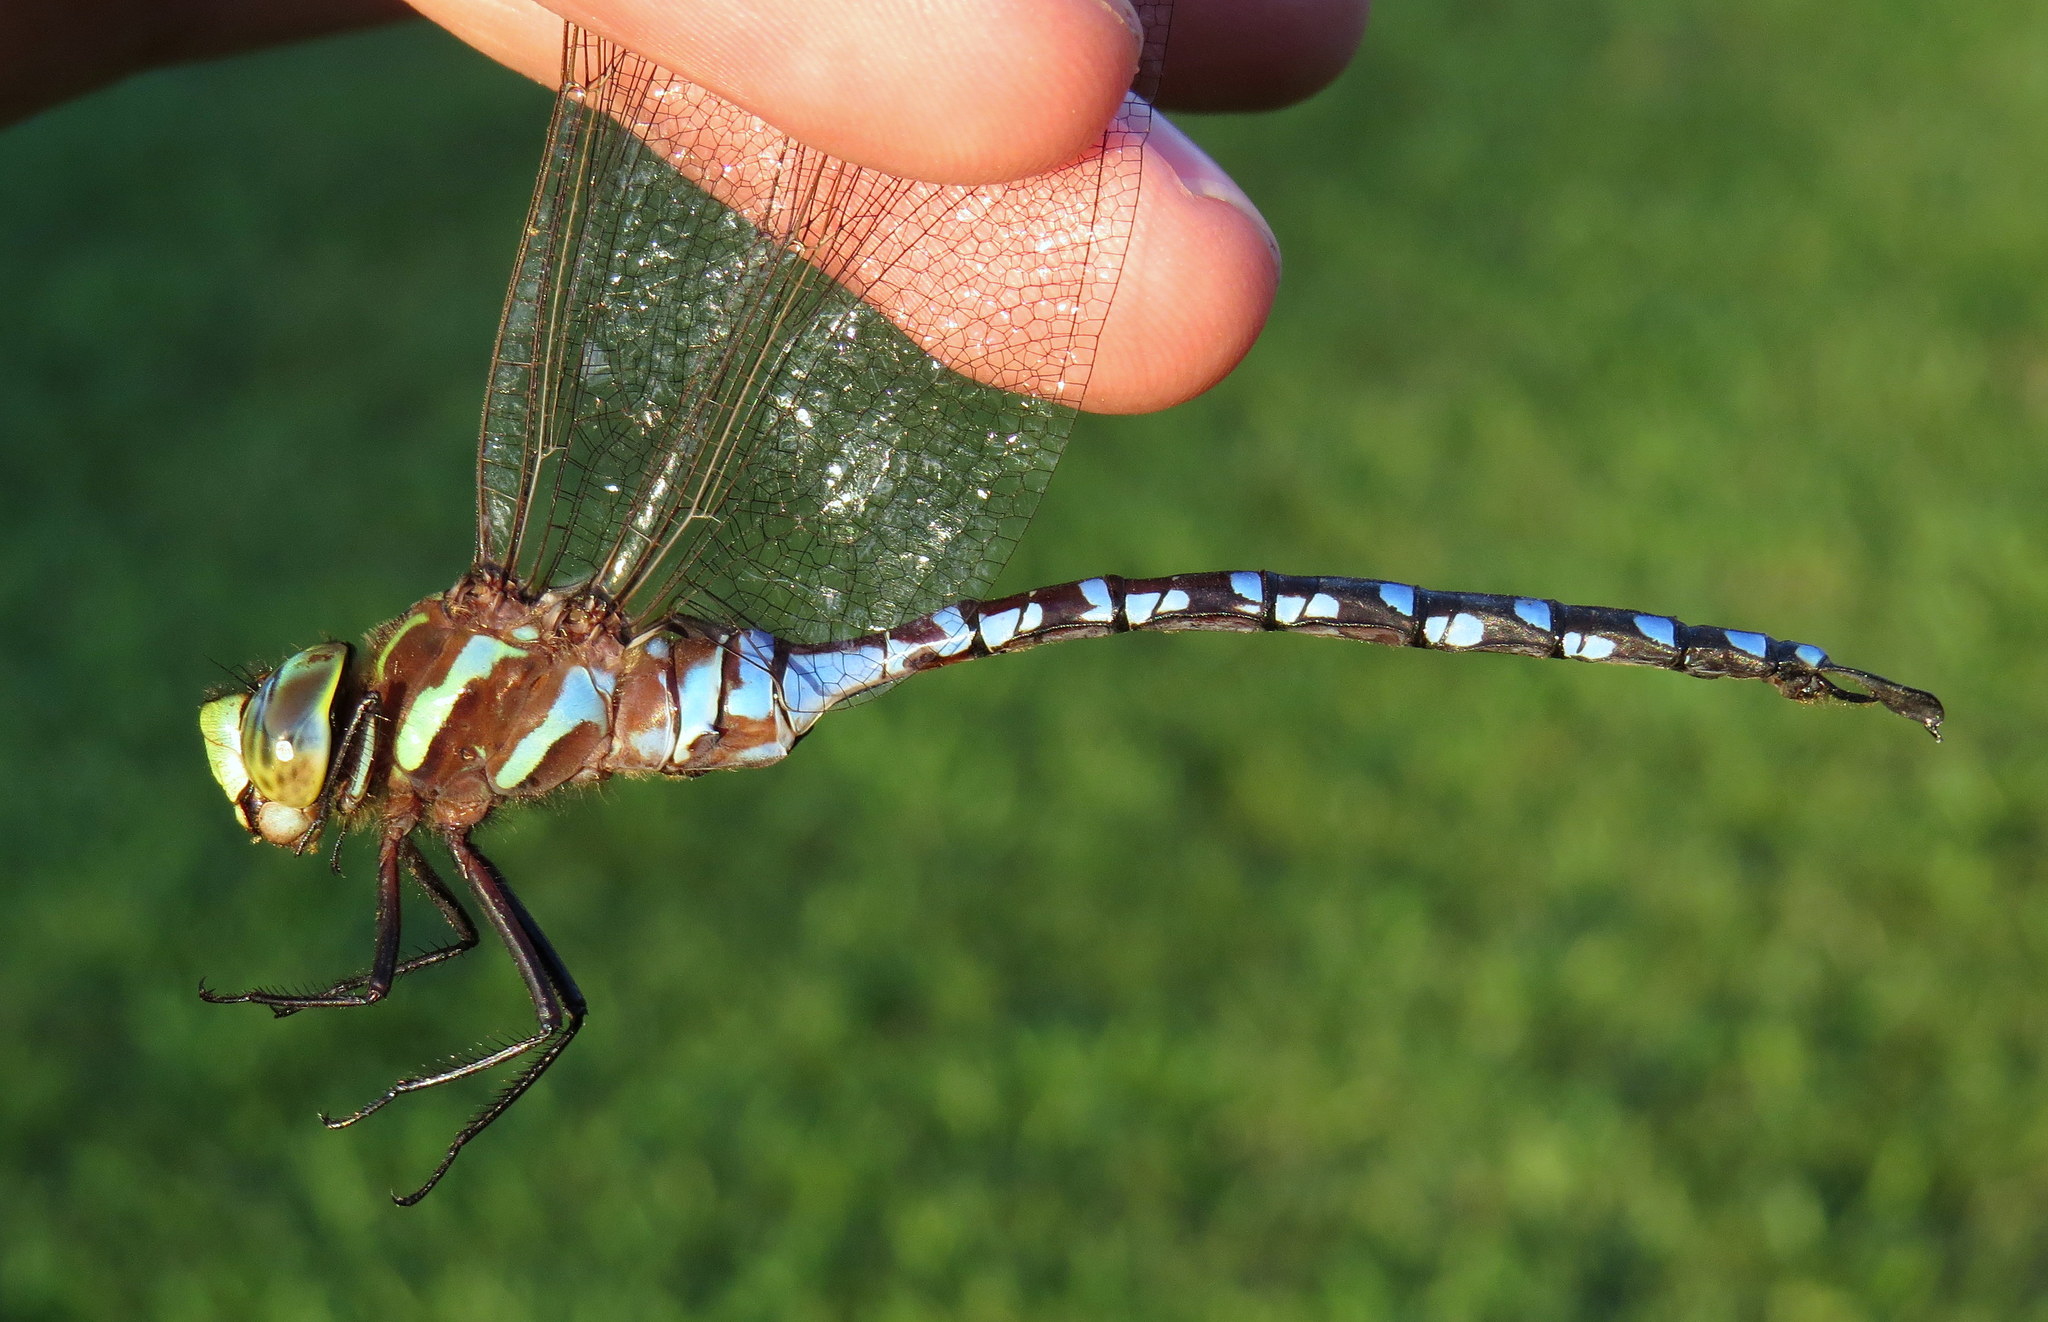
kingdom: Animalia
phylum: Arthropoda
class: Insecta
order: Odonata
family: Aeshnidae
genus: Aeshna
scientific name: Aeshna constricta
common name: Lance-tipped darner
